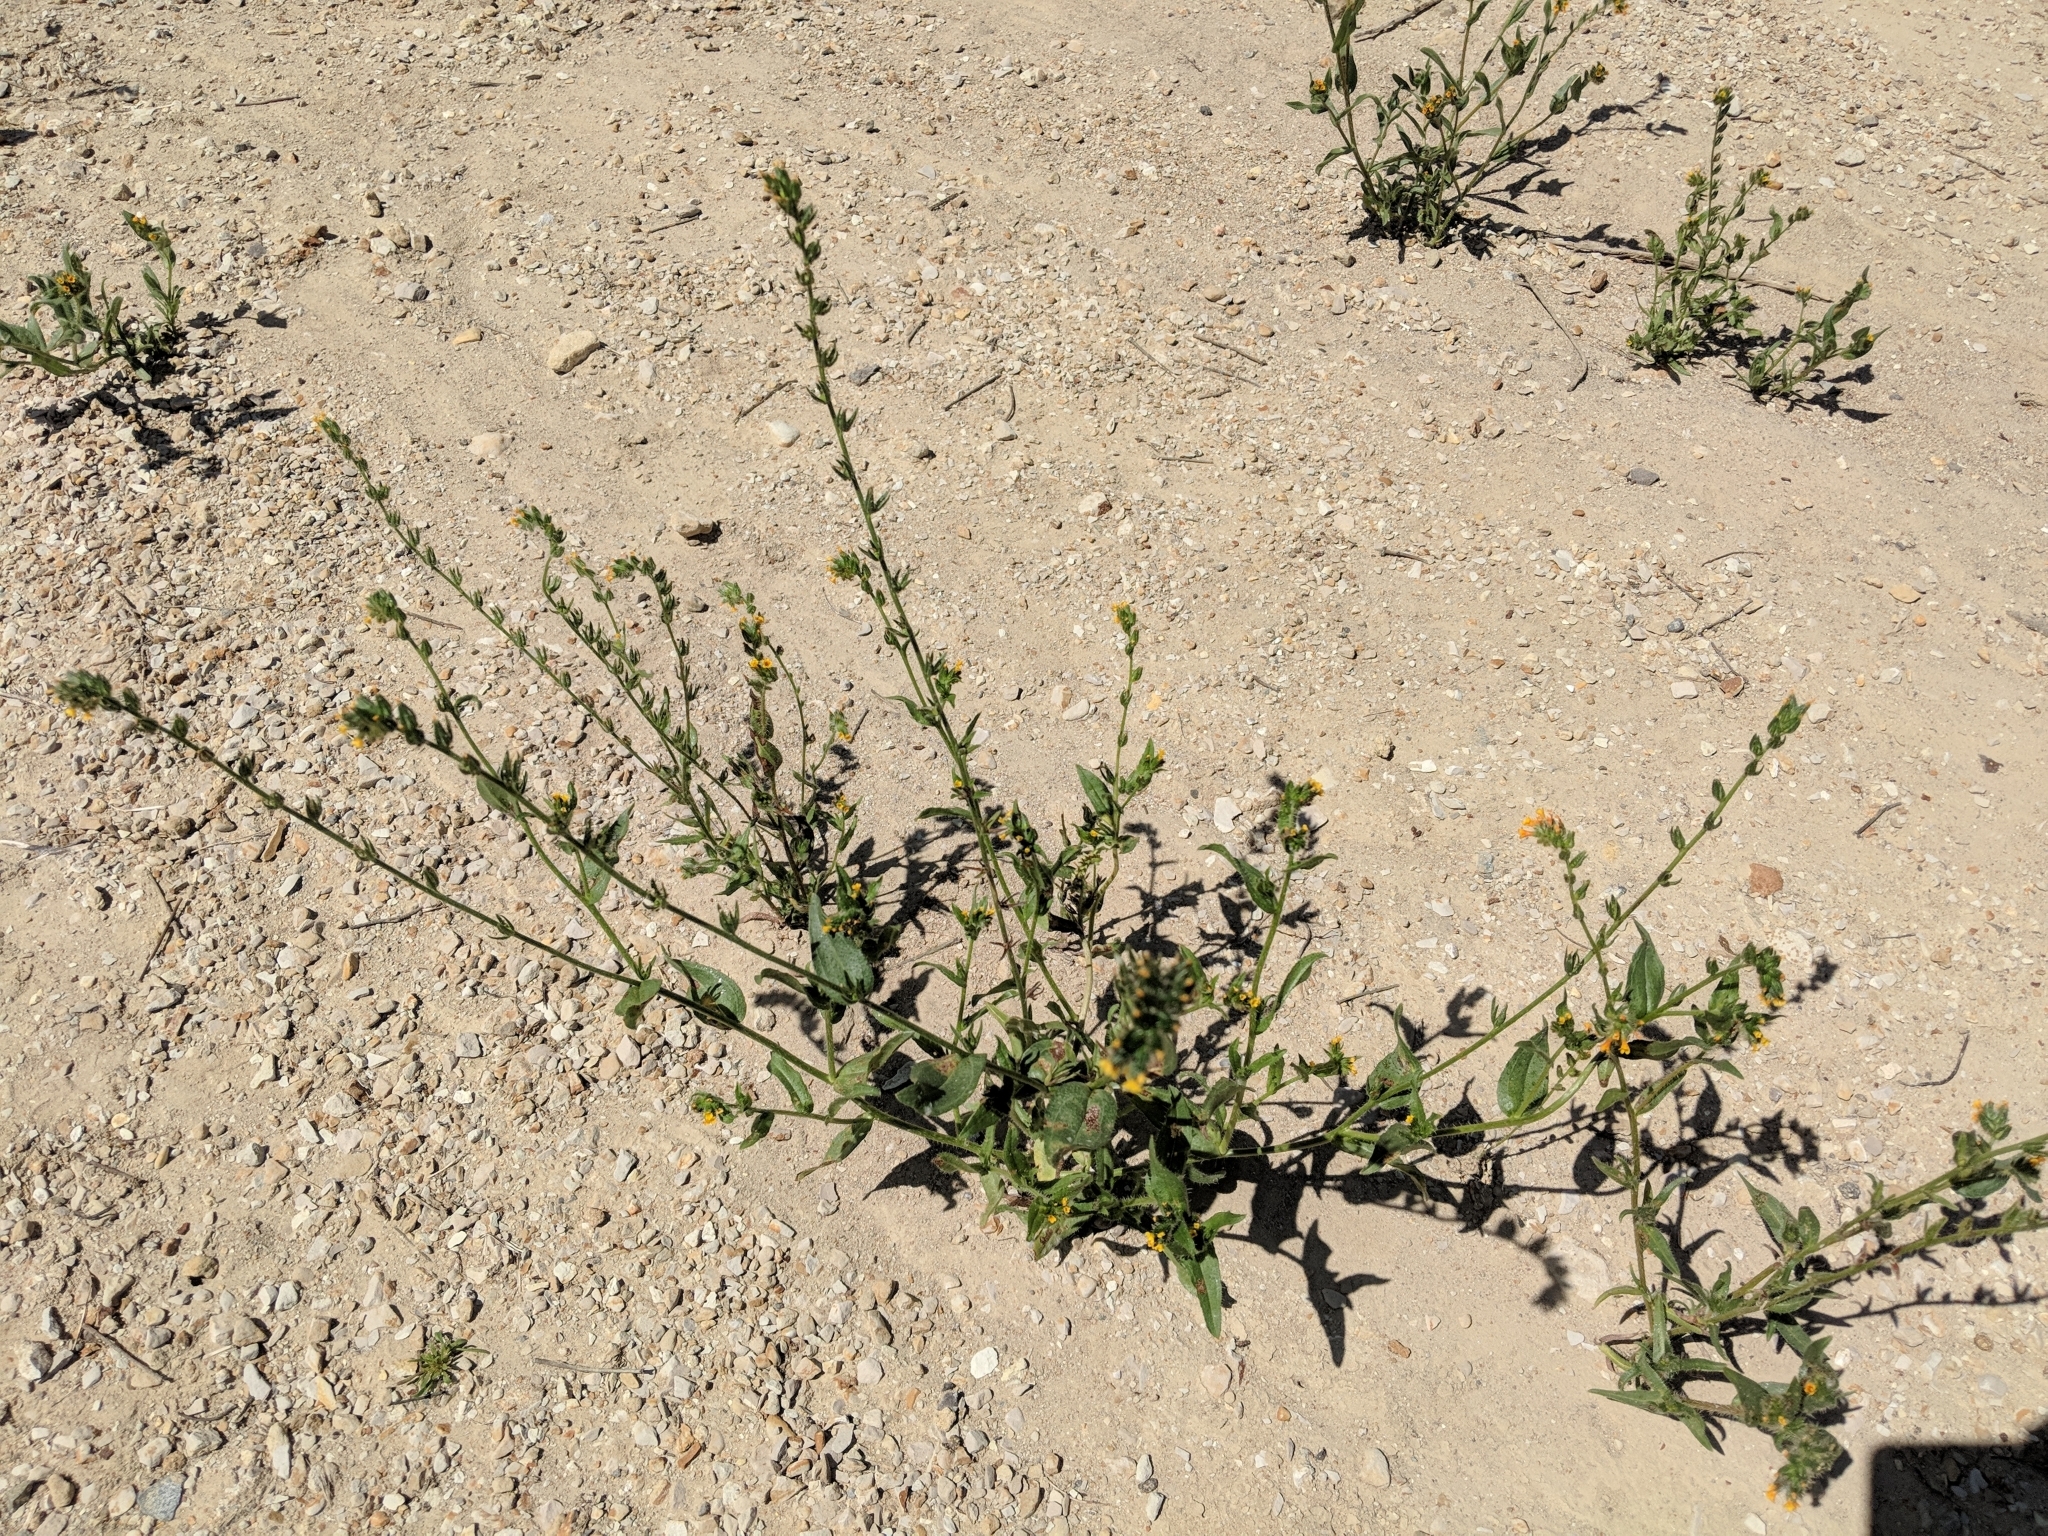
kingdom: Plantae
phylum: Tracheophyta
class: Magnoliopsida
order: Boraginales
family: Boraginaceae
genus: Amsinckia
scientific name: Amsinckia lycopsoides
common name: Tarweed fiddleneck
